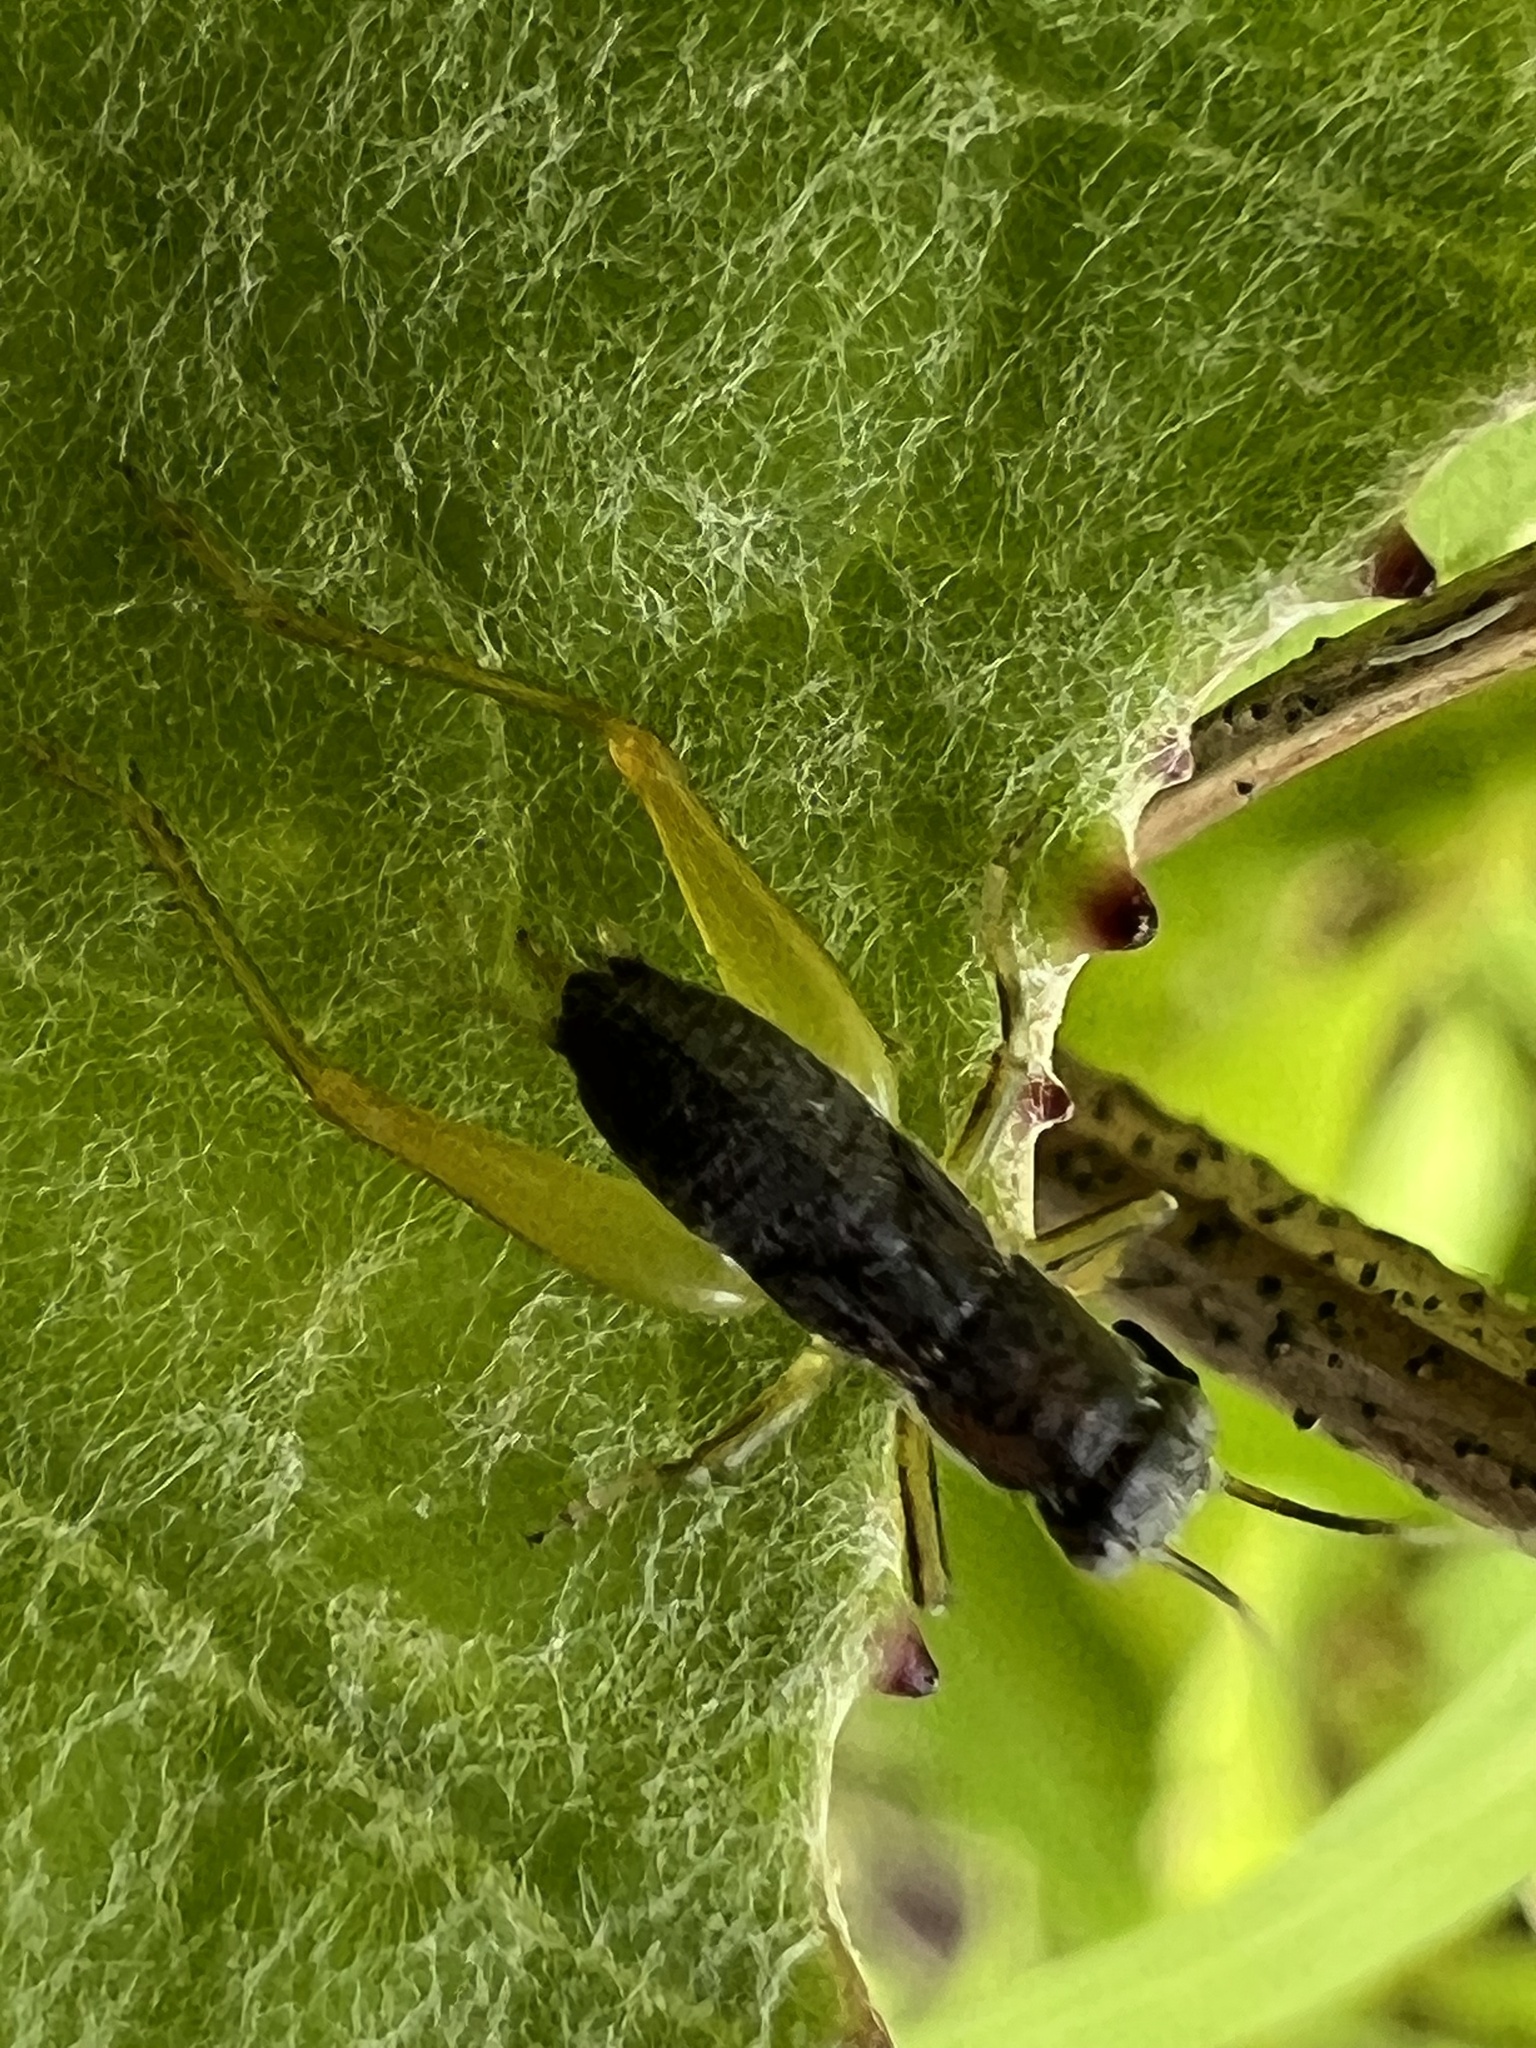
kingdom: Animalia
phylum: Arthropoda
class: Insecta
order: Orthoptera
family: Trigonidiidae
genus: Phyllopalpus
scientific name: Phyllopalpus pulchellus
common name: Handsome trig
